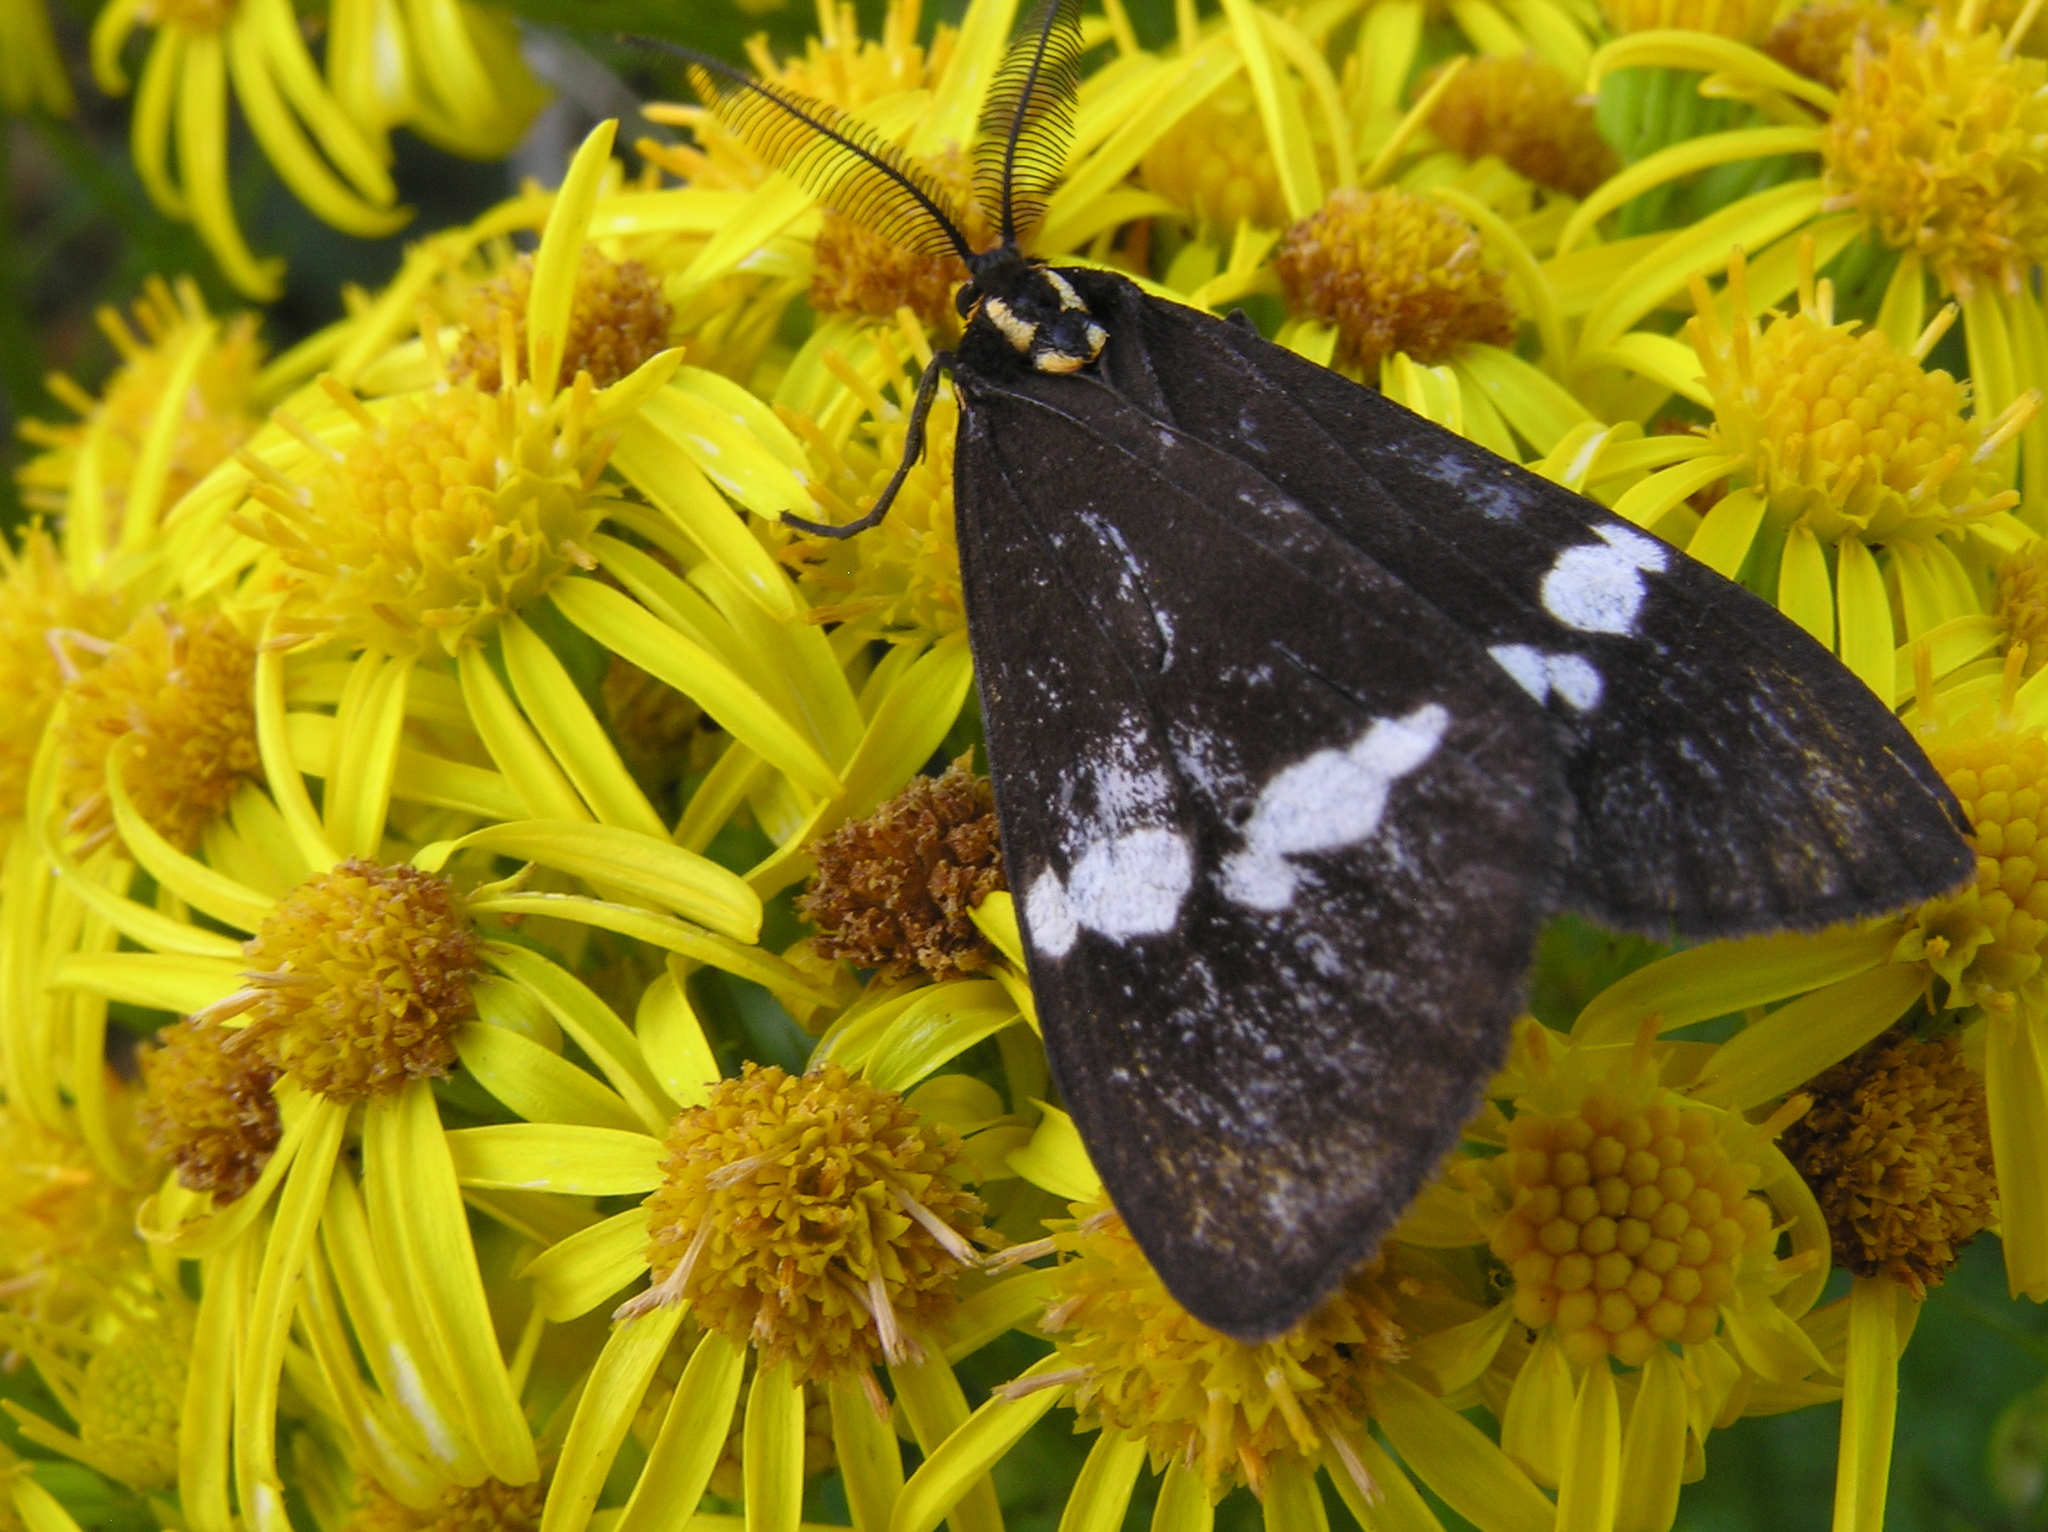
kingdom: Animalia
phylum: Arthropoda
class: Insecta
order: Lepidoptera
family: Erebidae
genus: Nyctemera
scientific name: Nyctemera annulatum
